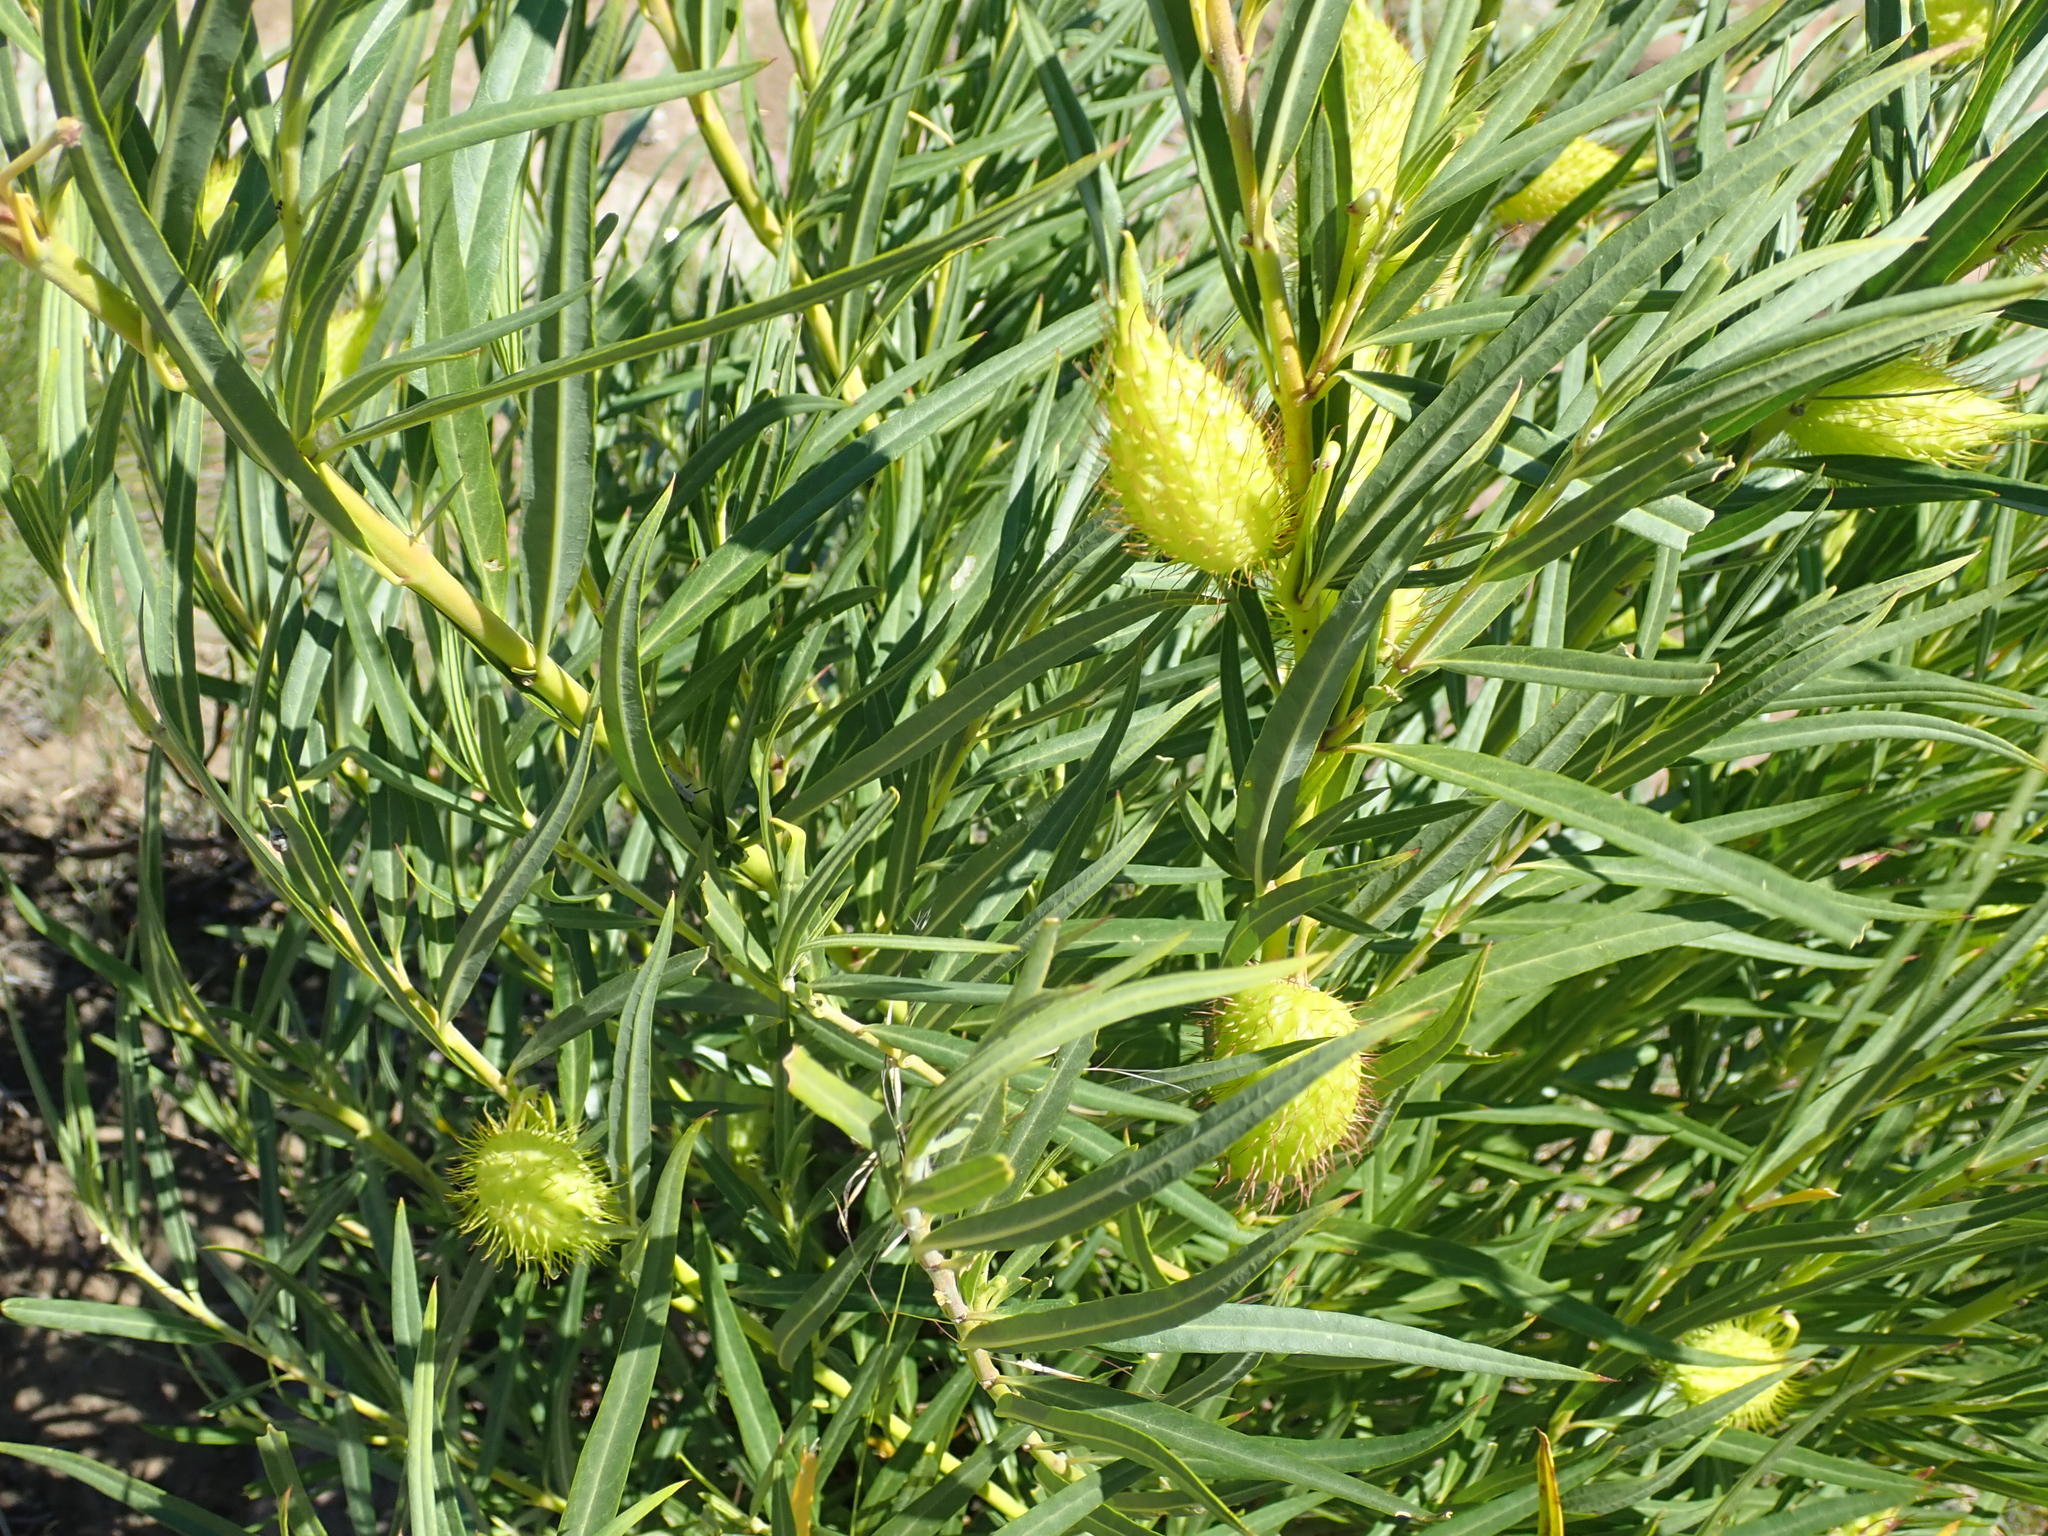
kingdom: Plantae
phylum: Tracheophyta
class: Magnoliopsida
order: Gentianales
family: Apocynaceae
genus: Gomphocarpus
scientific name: Gomphocarpus fruticosus
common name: Milkweed
